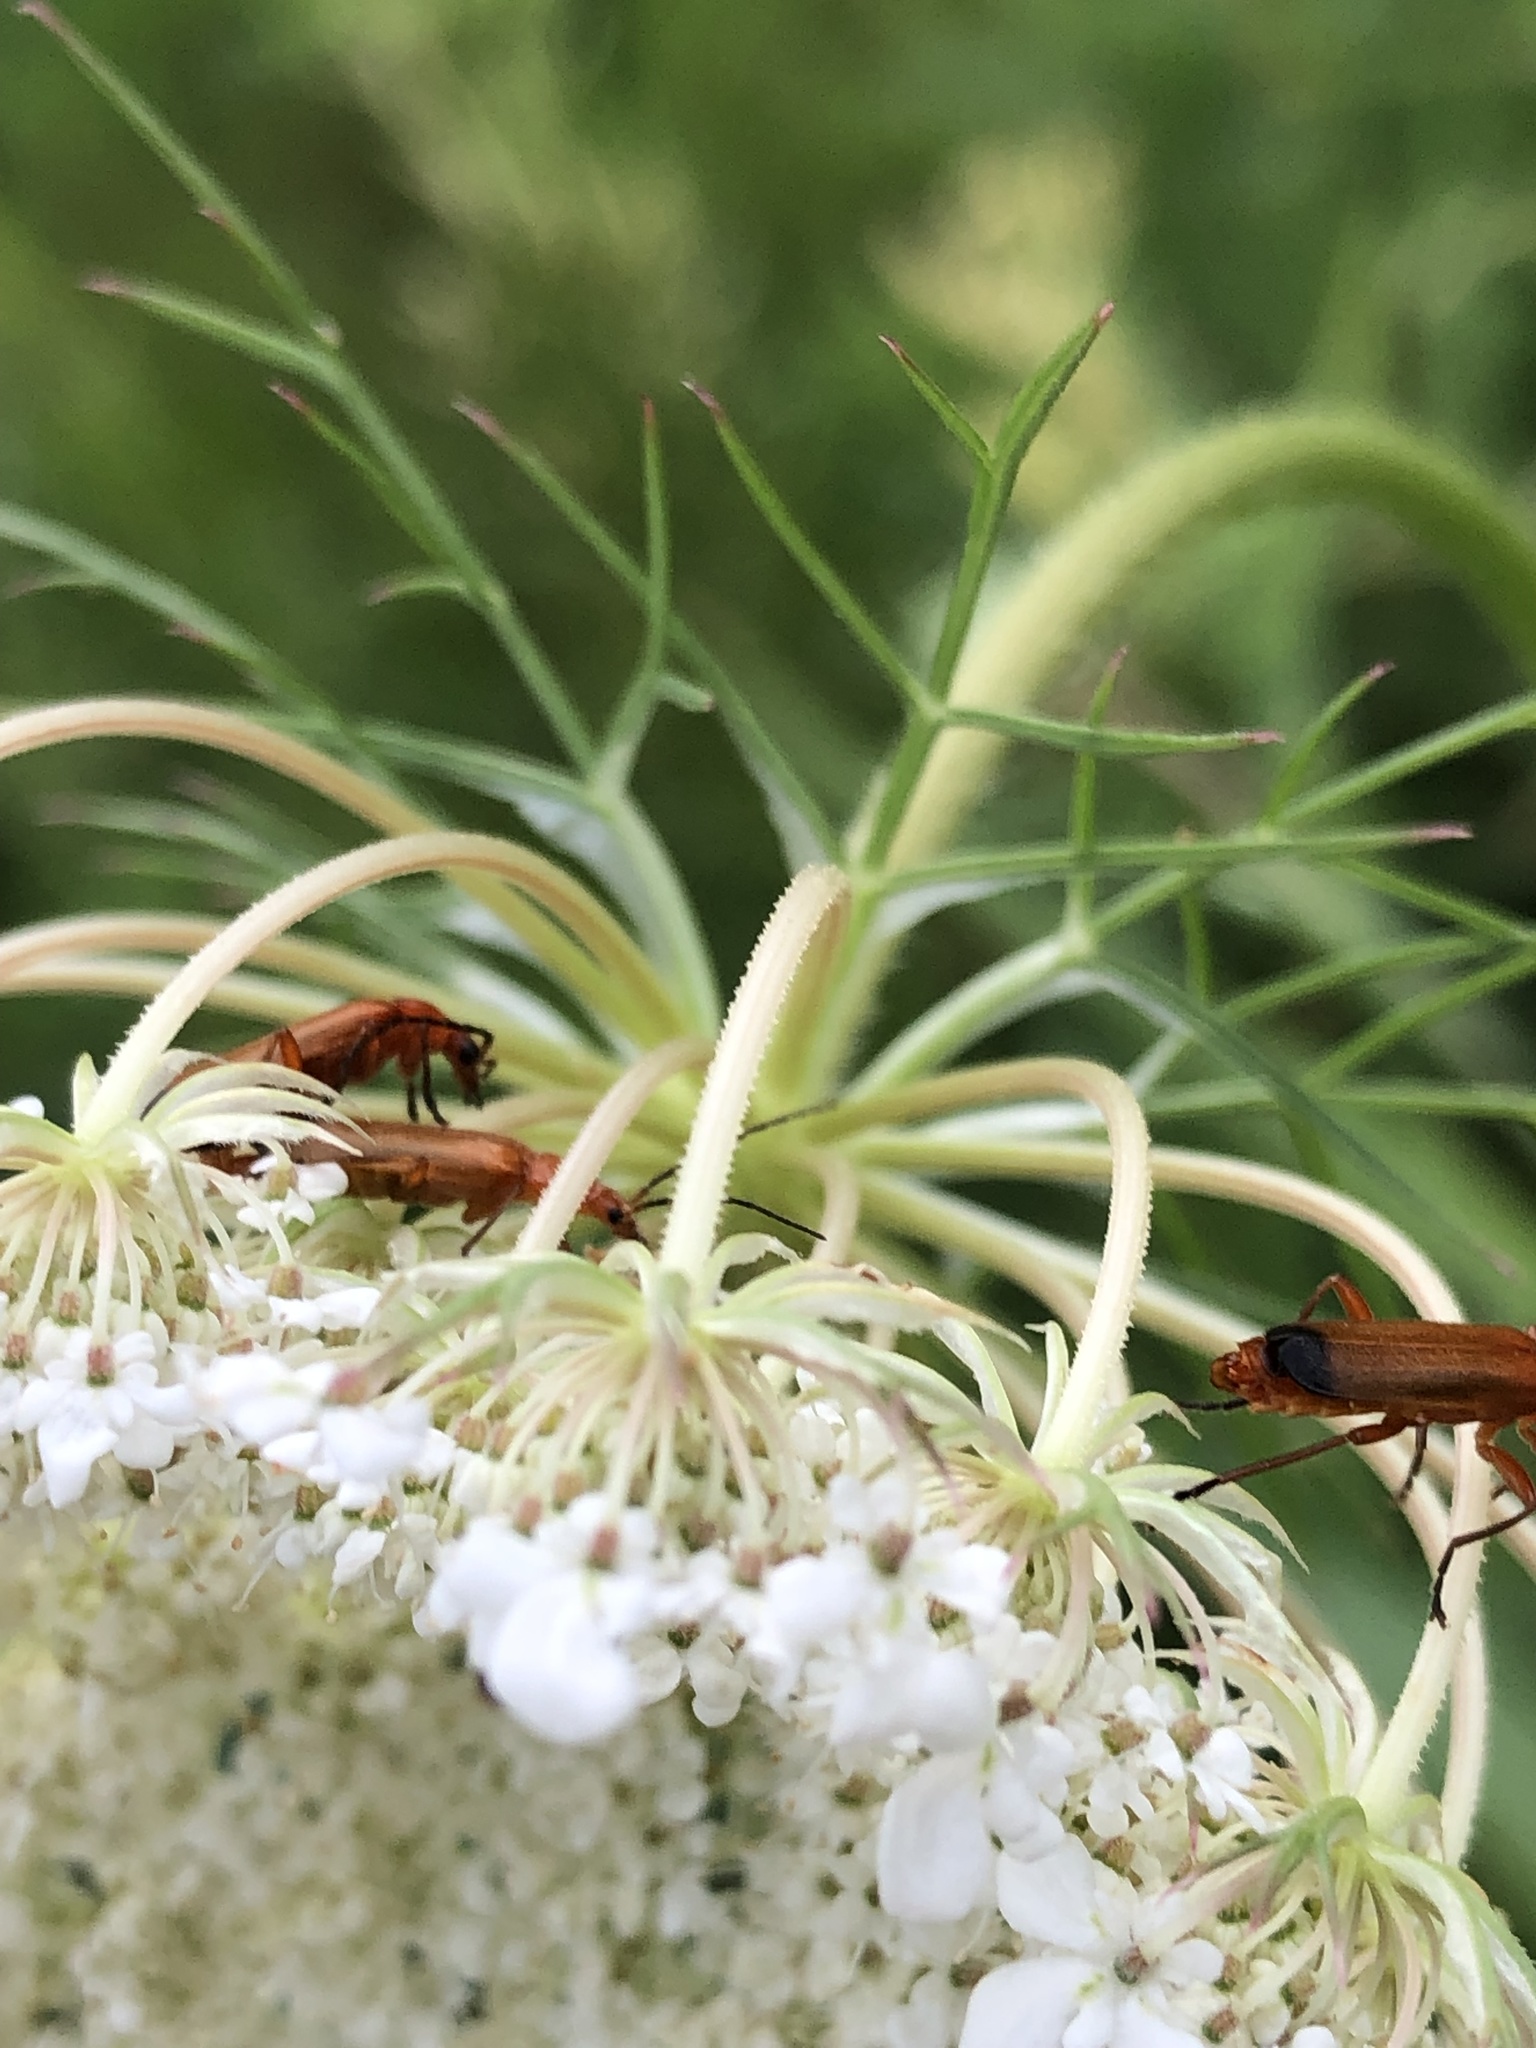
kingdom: Animalia
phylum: Arthropoda
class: Insecta
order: Coleoptera
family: Cantharidae
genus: Rhagonycha
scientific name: Rhagonycha fulva
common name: Common red soldier beetle
